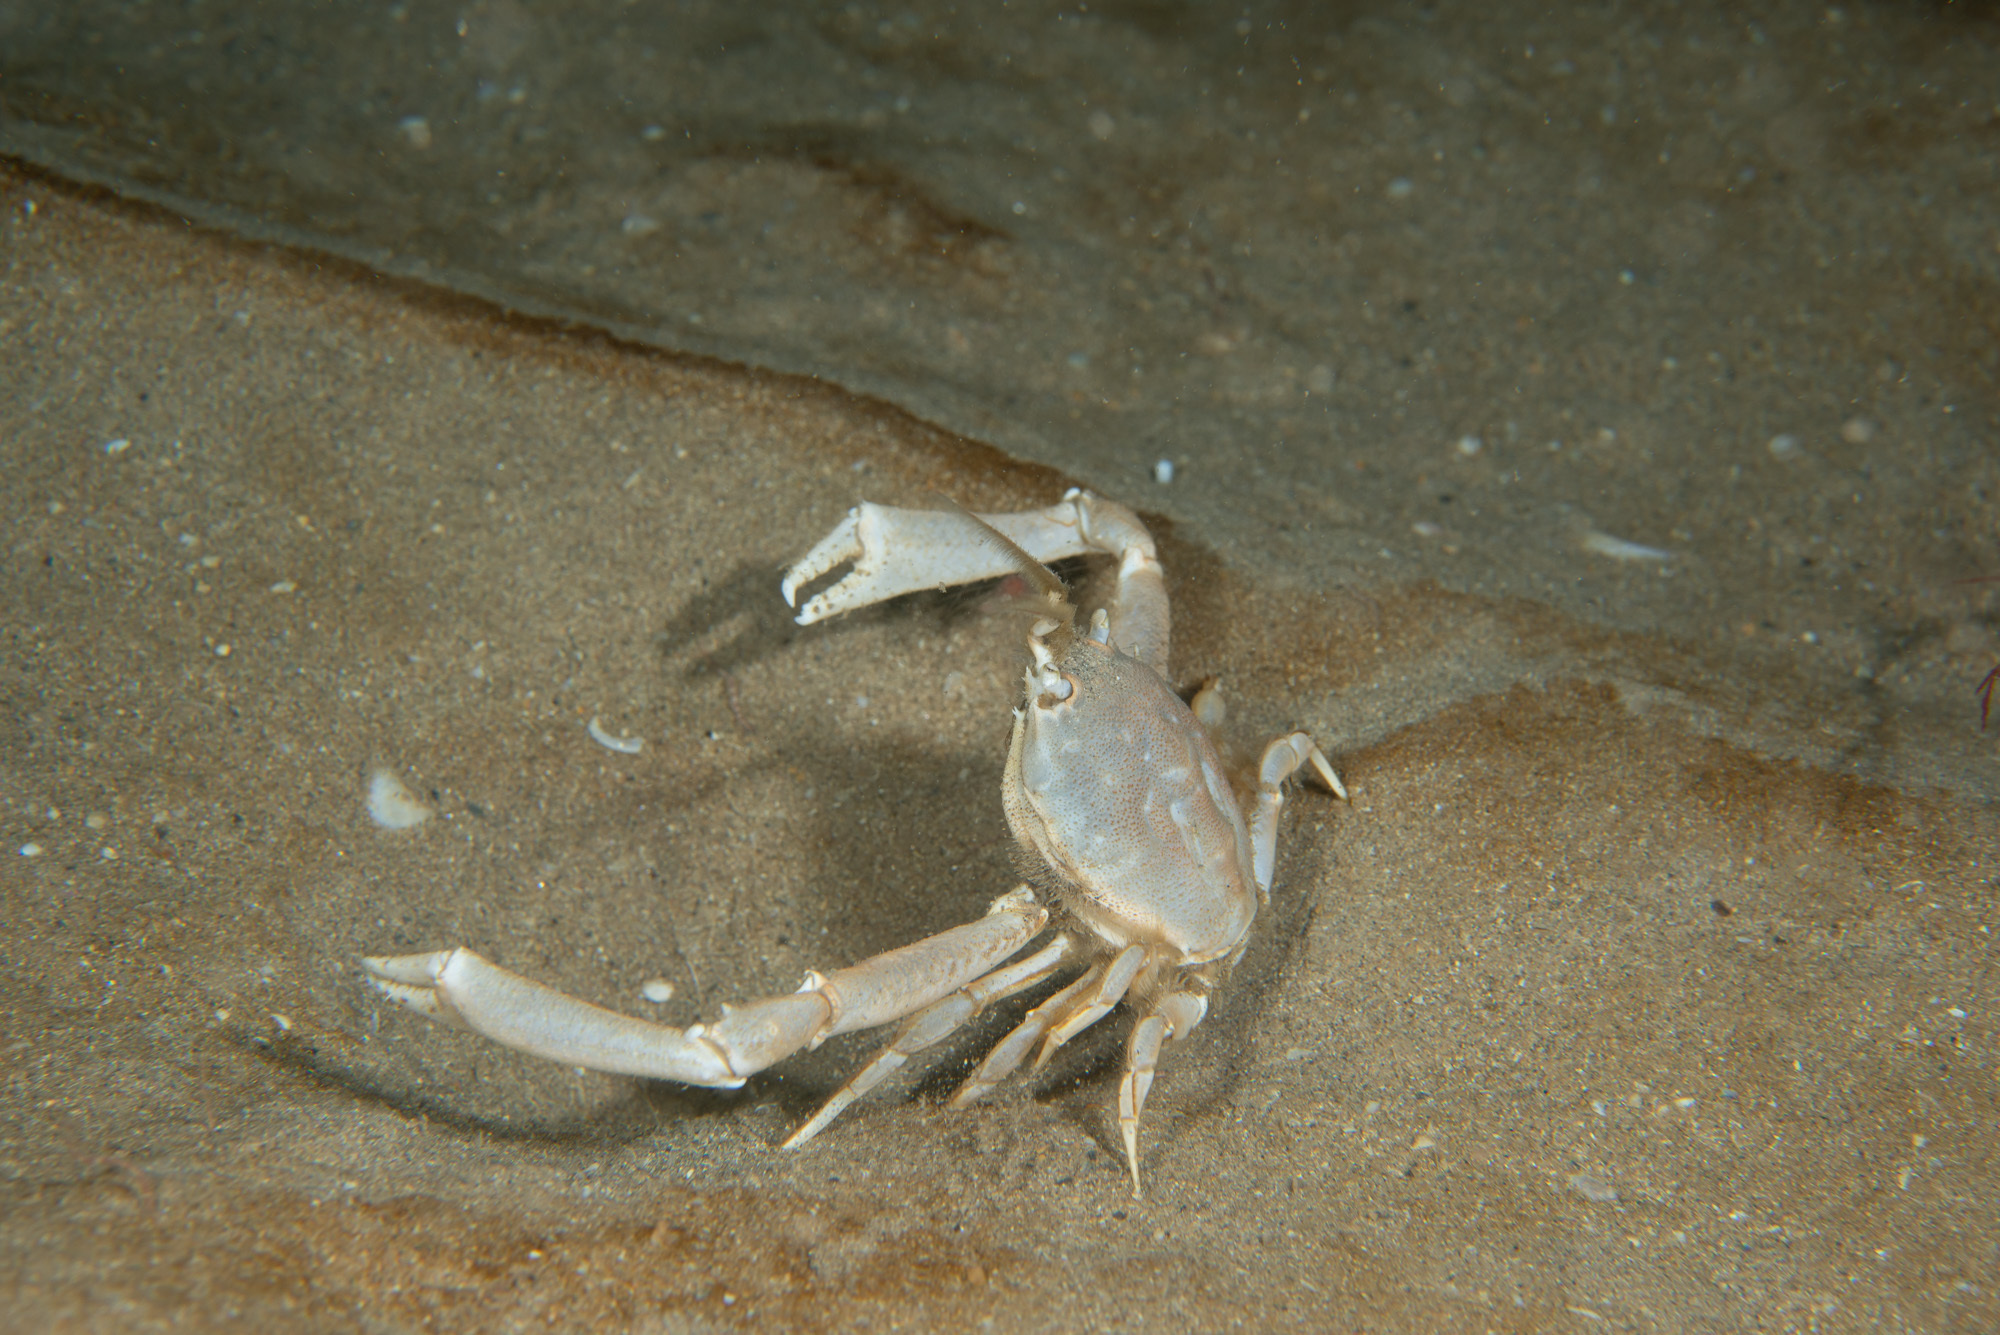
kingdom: Animalia
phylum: Arthropoda
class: Malacostraca
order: Decapoda
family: Corystidae
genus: Corystes
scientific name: Corystes cassivelaunus
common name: Masked crab
